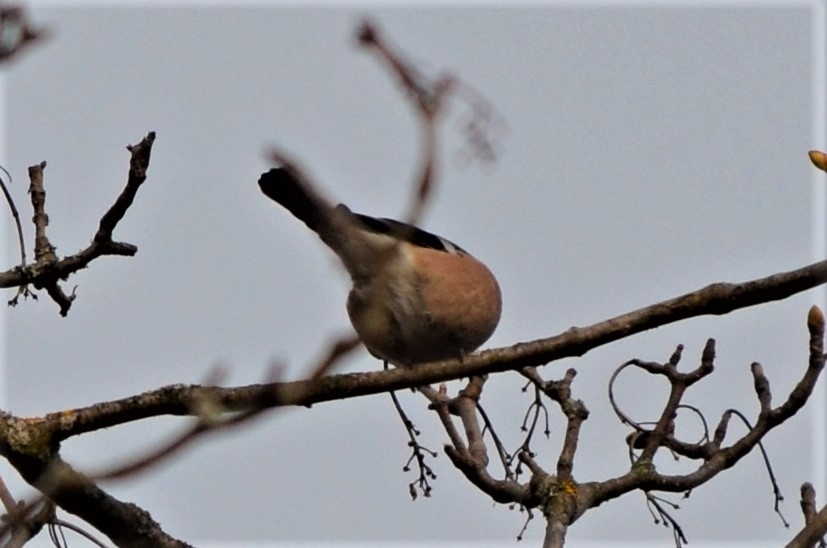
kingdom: Animalia
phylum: Chordata
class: Aves
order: Passeriformes
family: Fringillidae
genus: Pyrrhula
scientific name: Pyrrhula pyrrhula
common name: Eurasian bullfinch
